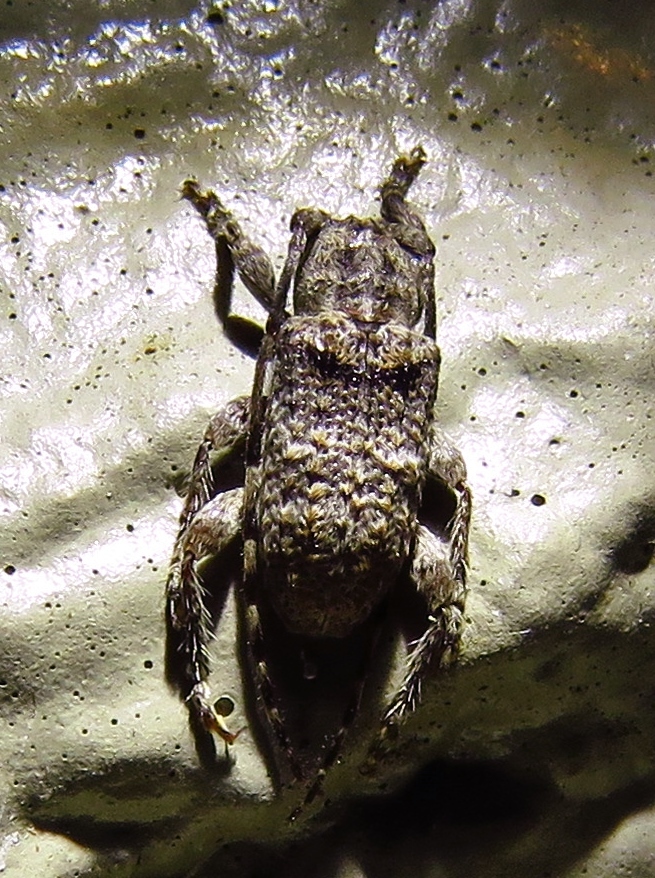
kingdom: Animalia
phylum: Arthropoda
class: Insecta
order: Coleoptera
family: Cerambycidae
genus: Ecyrus
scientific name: Ecyrus dasycerus
